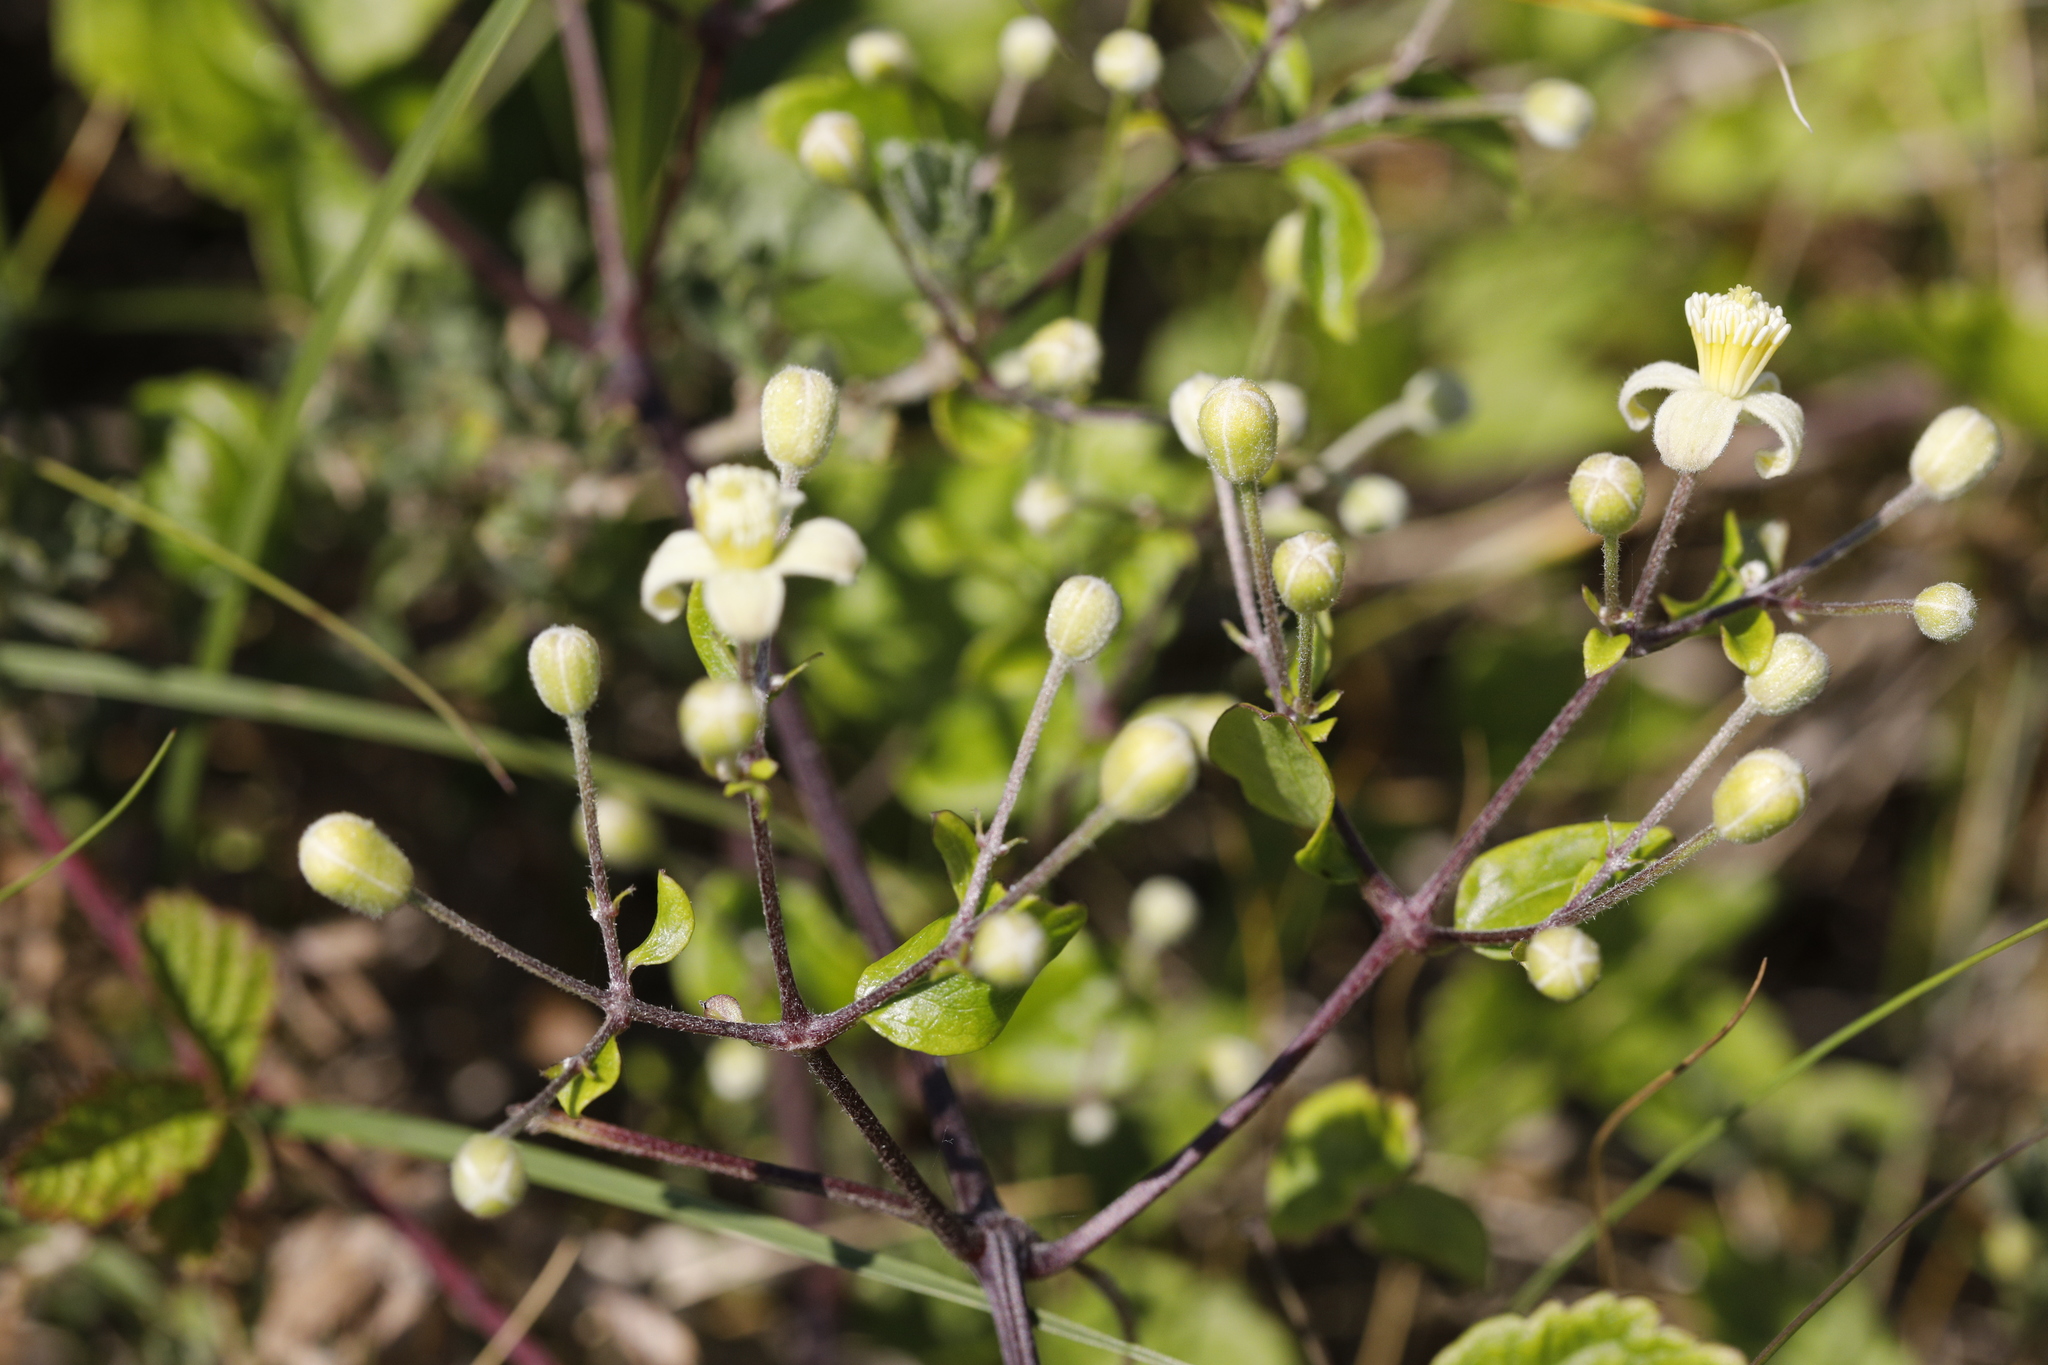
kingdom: Plantae
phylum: Tracheophyta
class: Magnoliopsida
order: Ranunculales
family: Ranunculaceae
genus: Clematis
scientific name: Clematis vitalba
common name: Evergreen clematis
